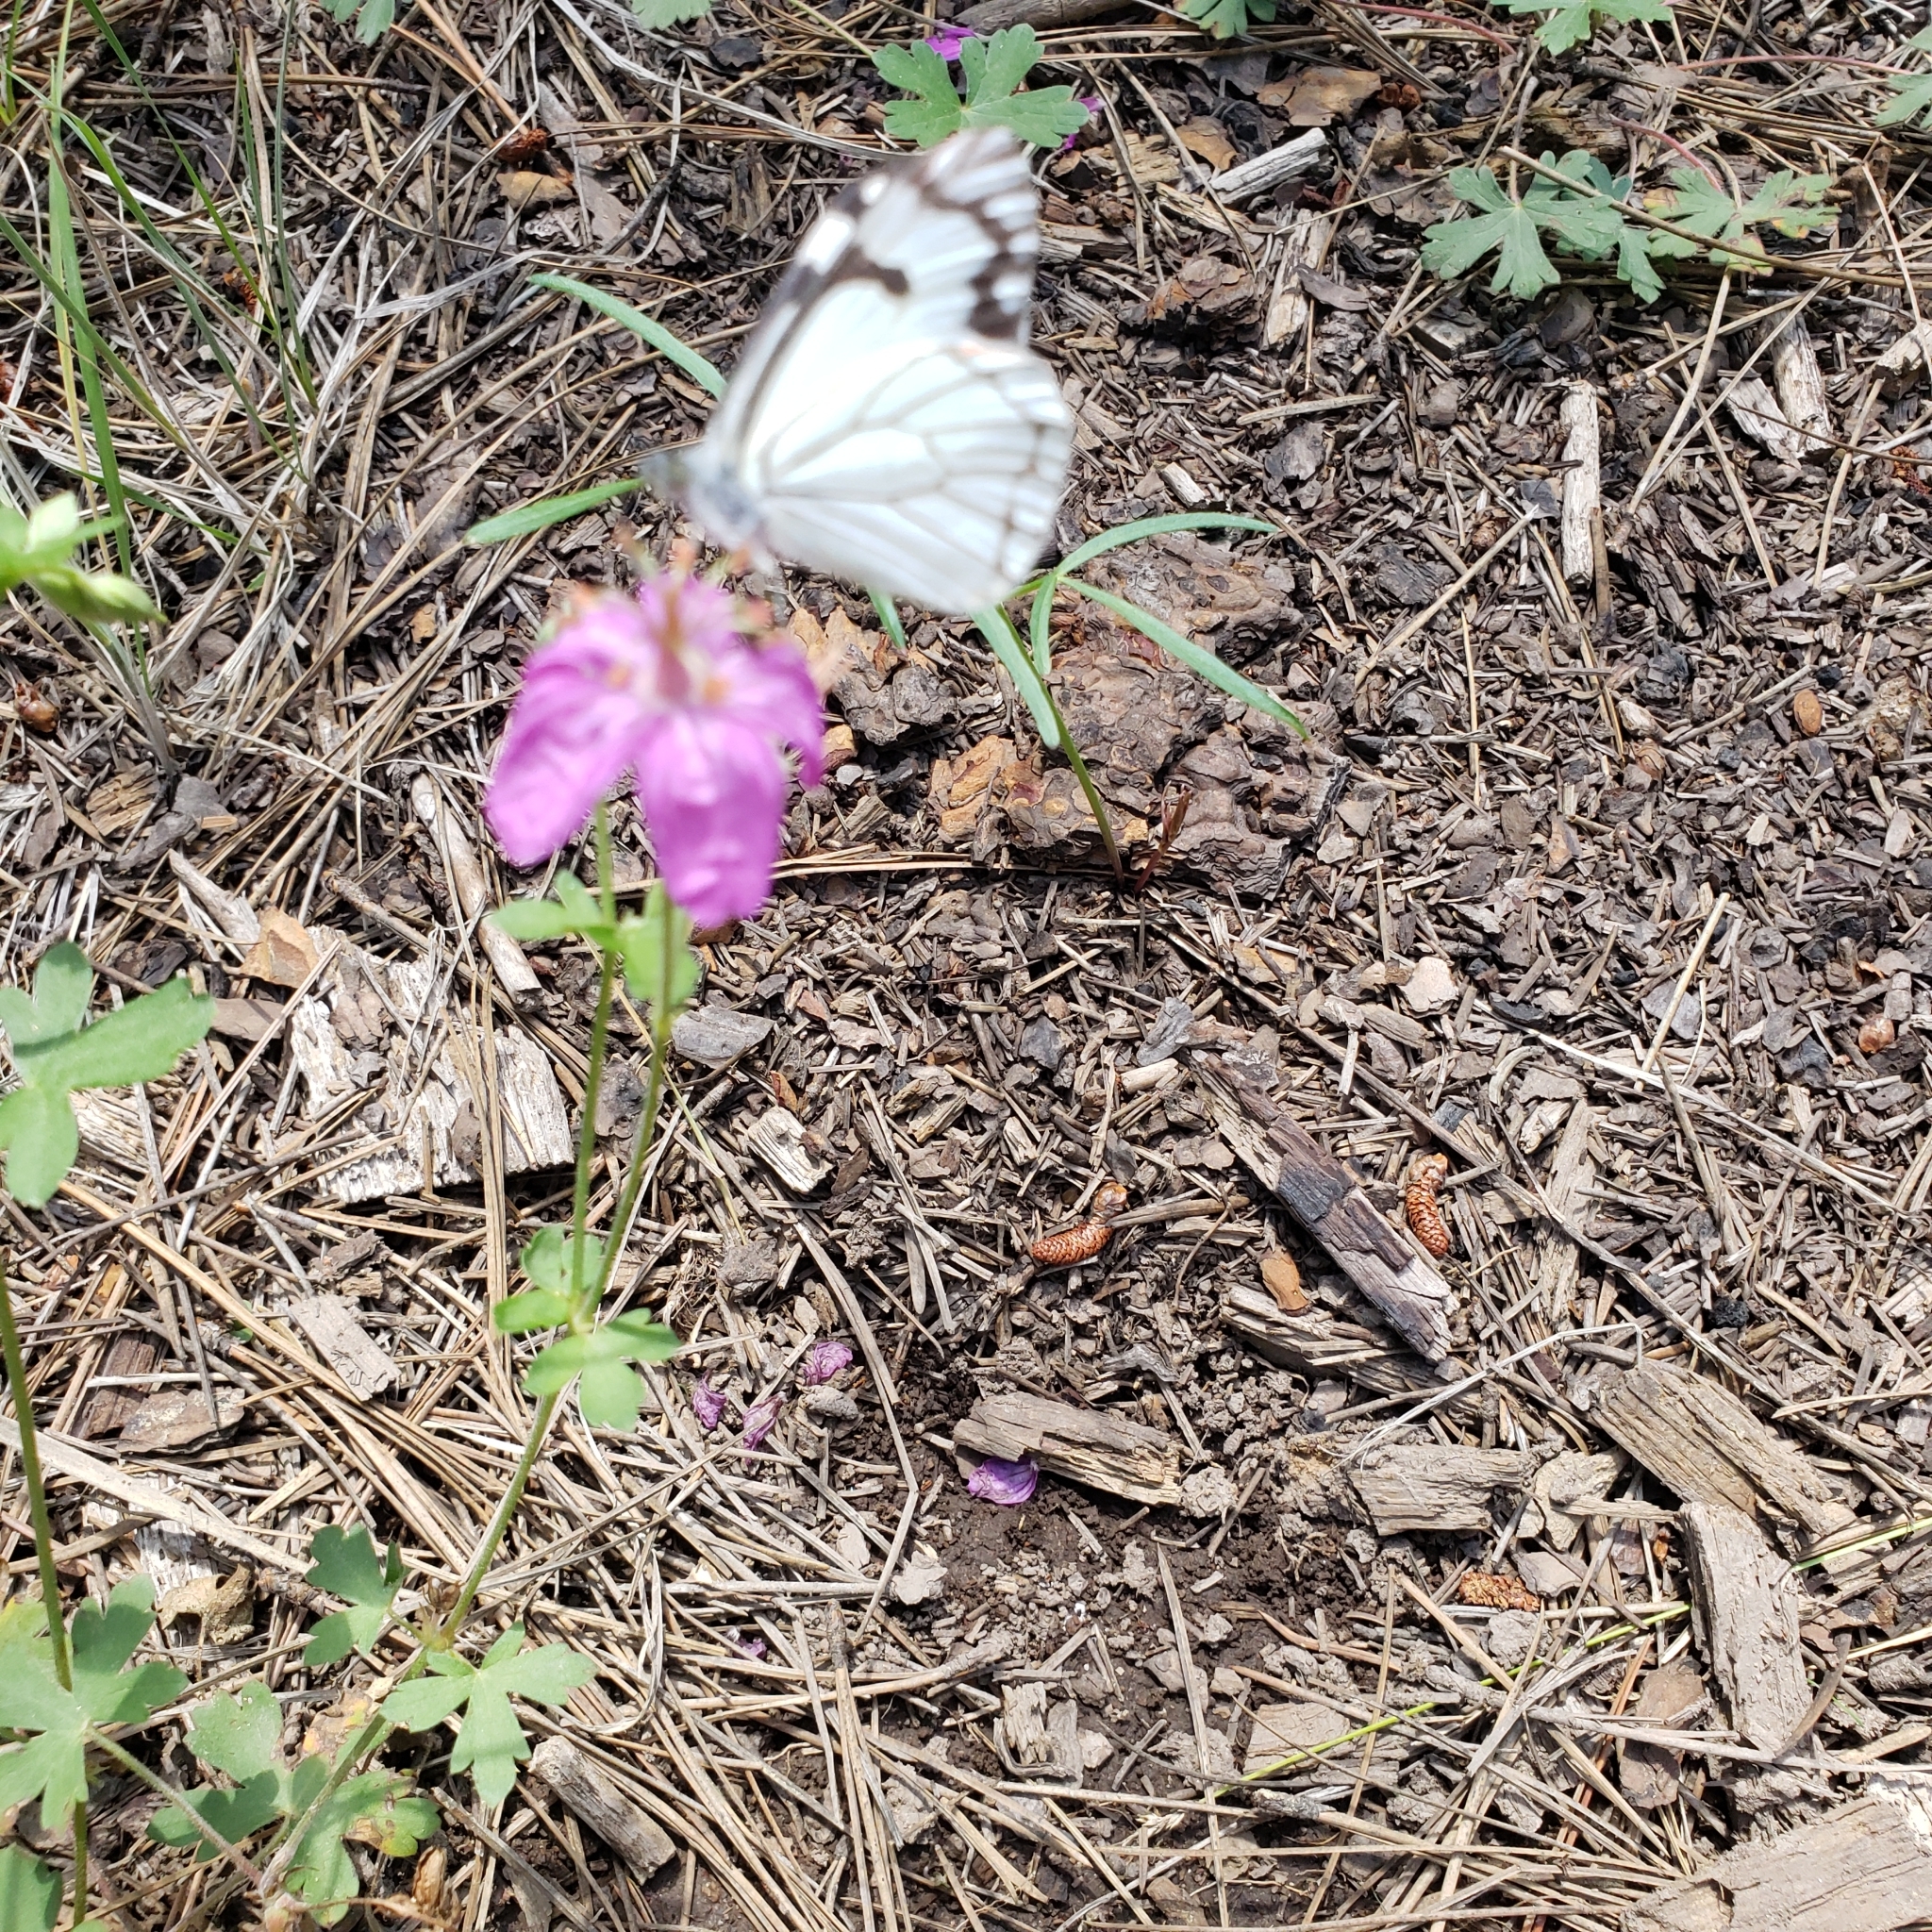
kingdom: Animalia
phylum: Arthropoda
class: Insecta
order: Lepidoptera
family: Pieridae
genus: Neophasia
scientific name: Neophasia menapia
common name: Pine white
